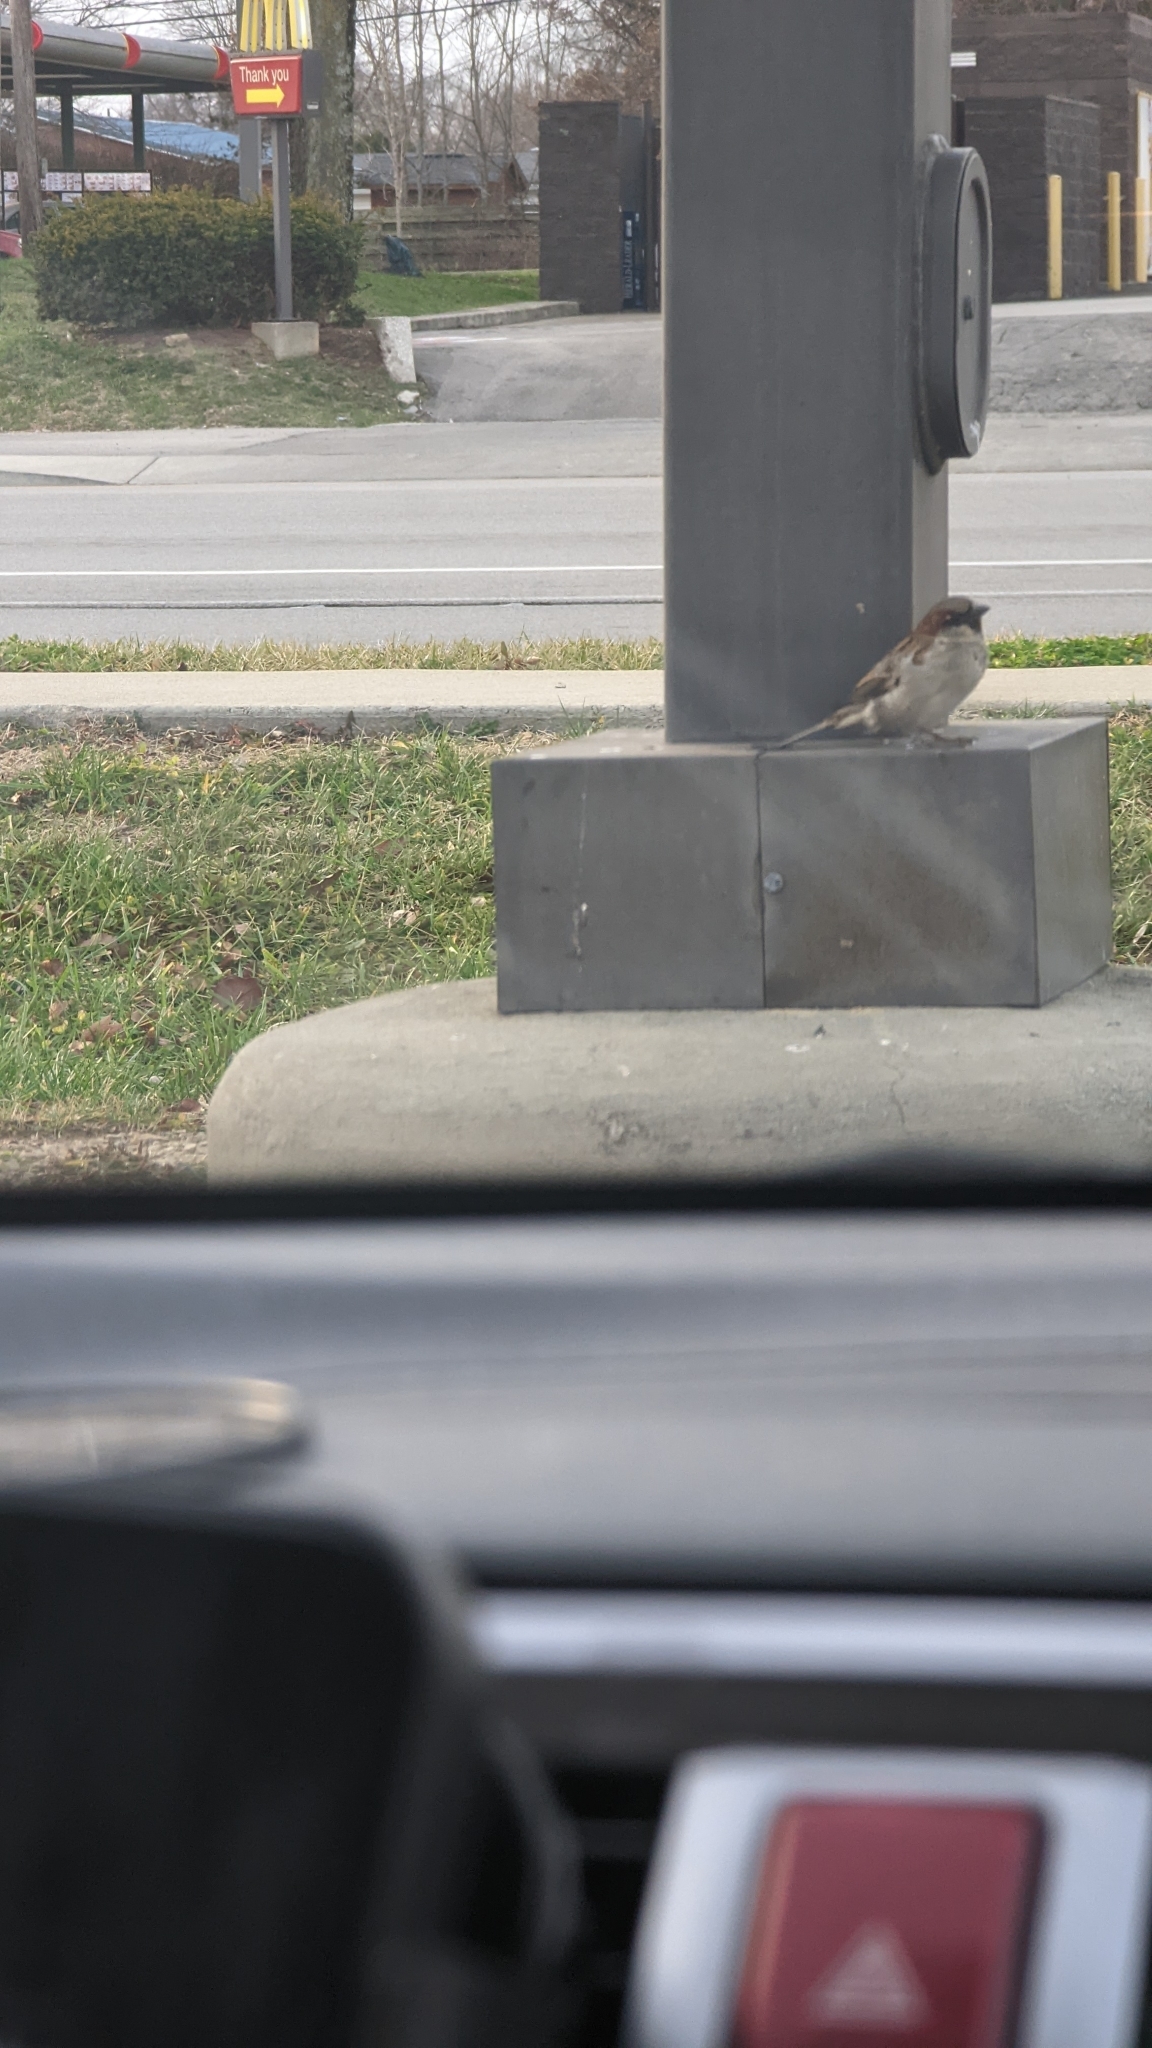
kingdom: Animalia
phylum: Chordata
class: Aves
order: Passeriformes
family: Passeridae
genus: Passer
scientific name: Passer domesticus
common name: House sparrow
